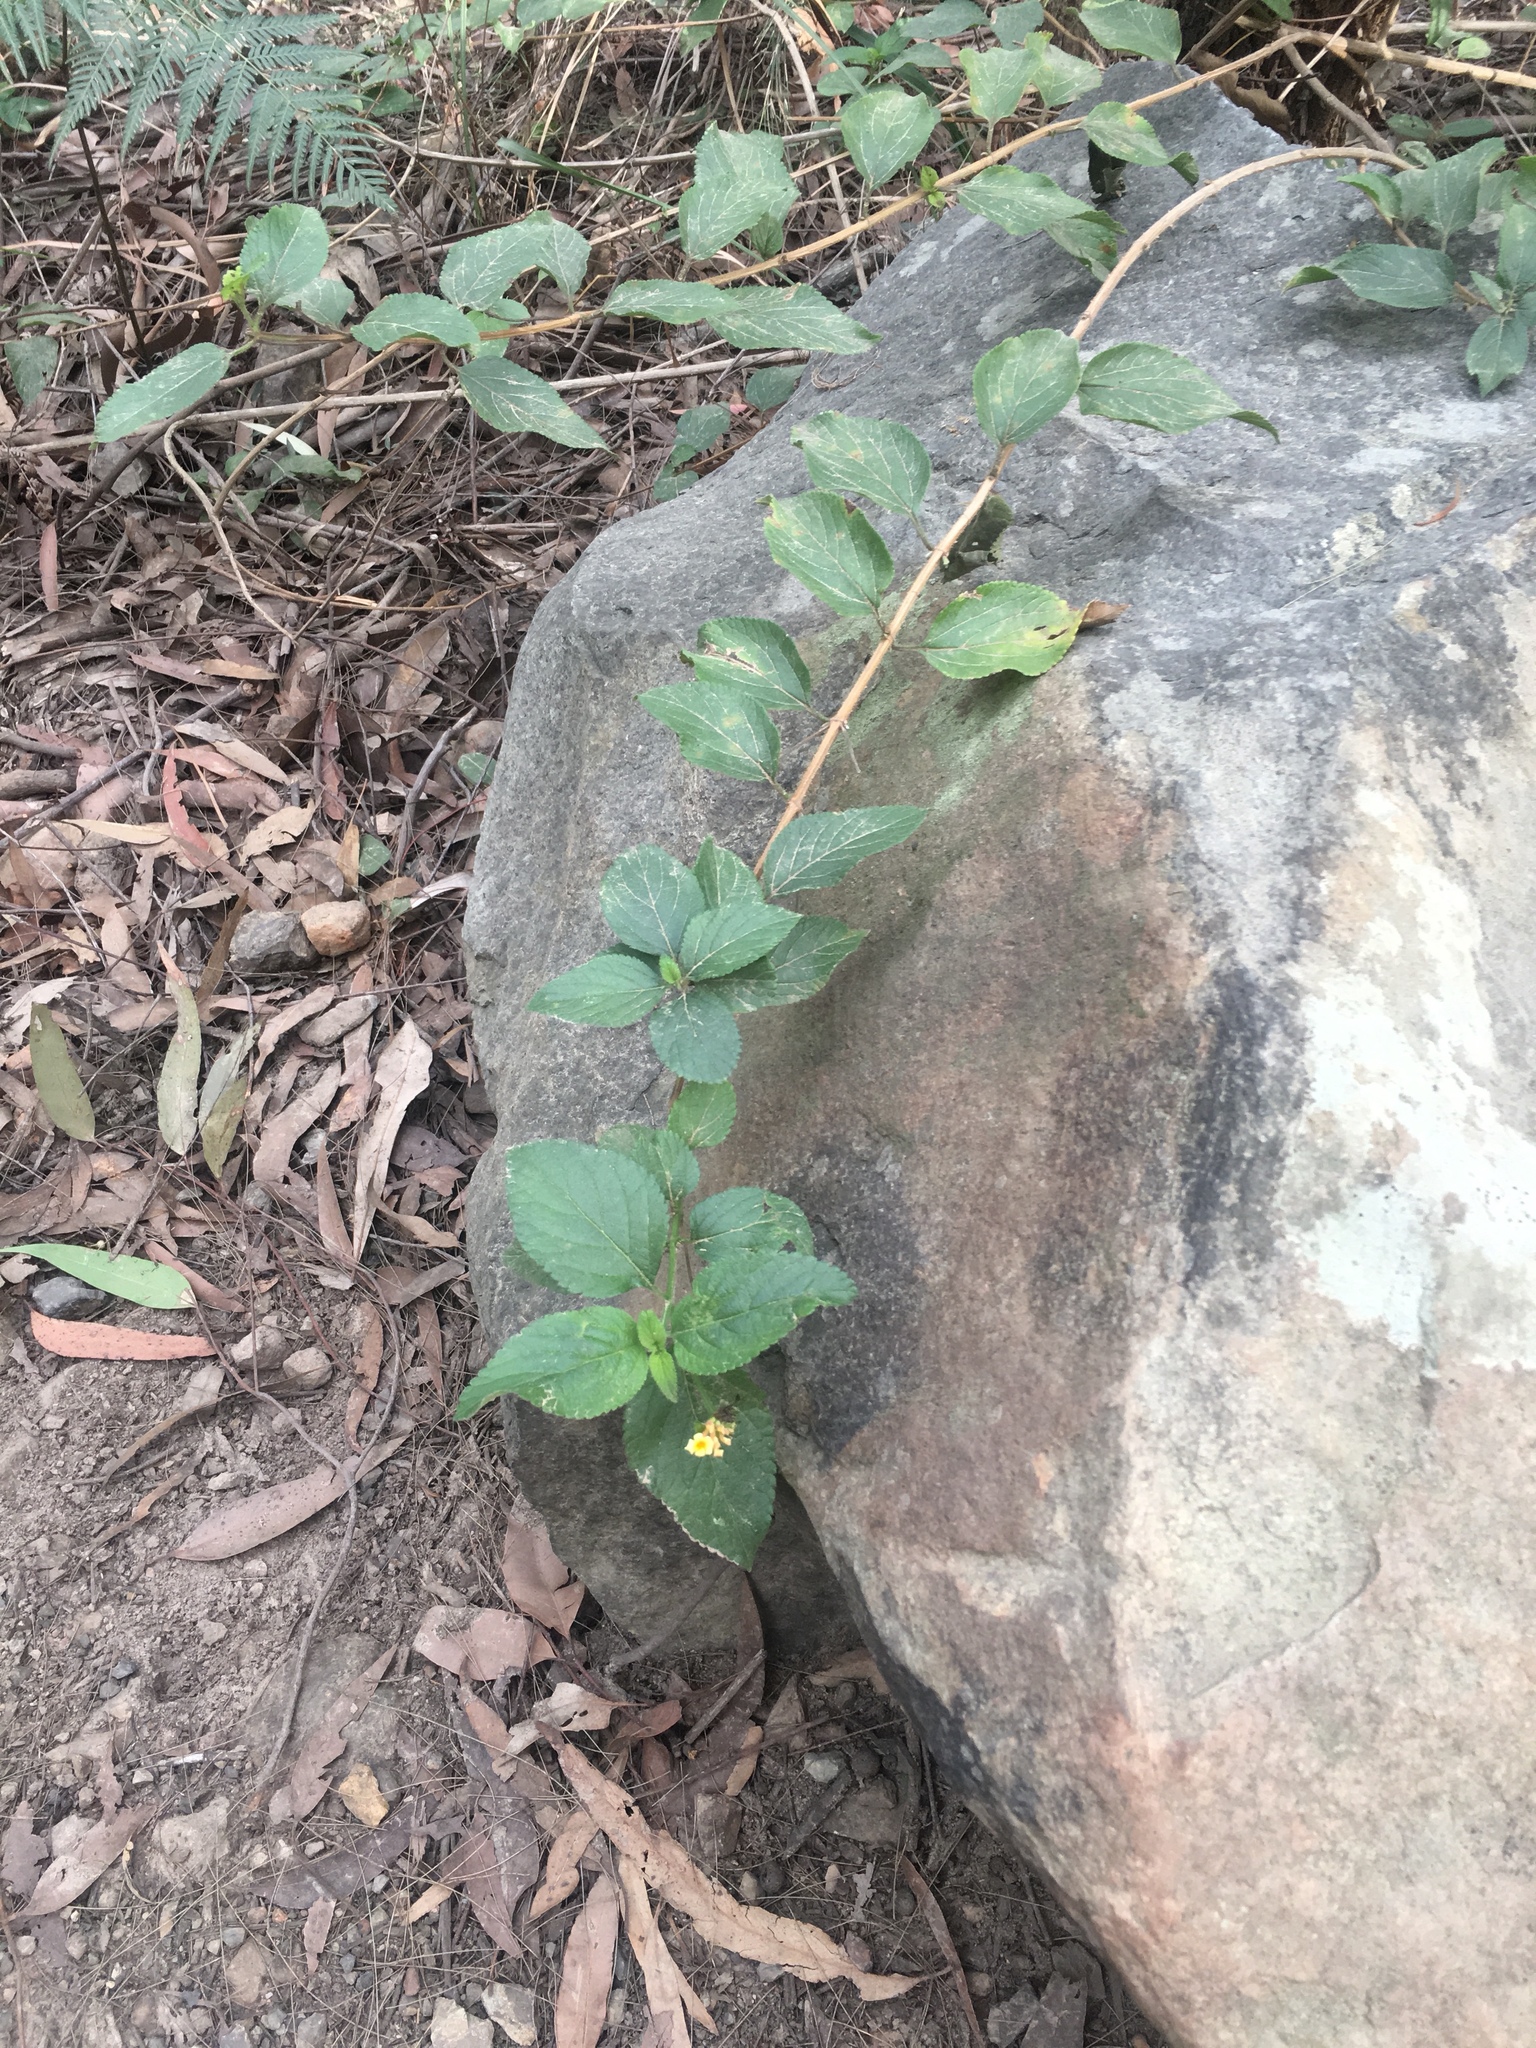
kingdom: Plantae
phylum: Tracheophyta
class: Magnoliopsida
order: Lamiales
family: Verbenaceae
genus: Lantana
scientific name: Lantana camara
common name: Lantana
